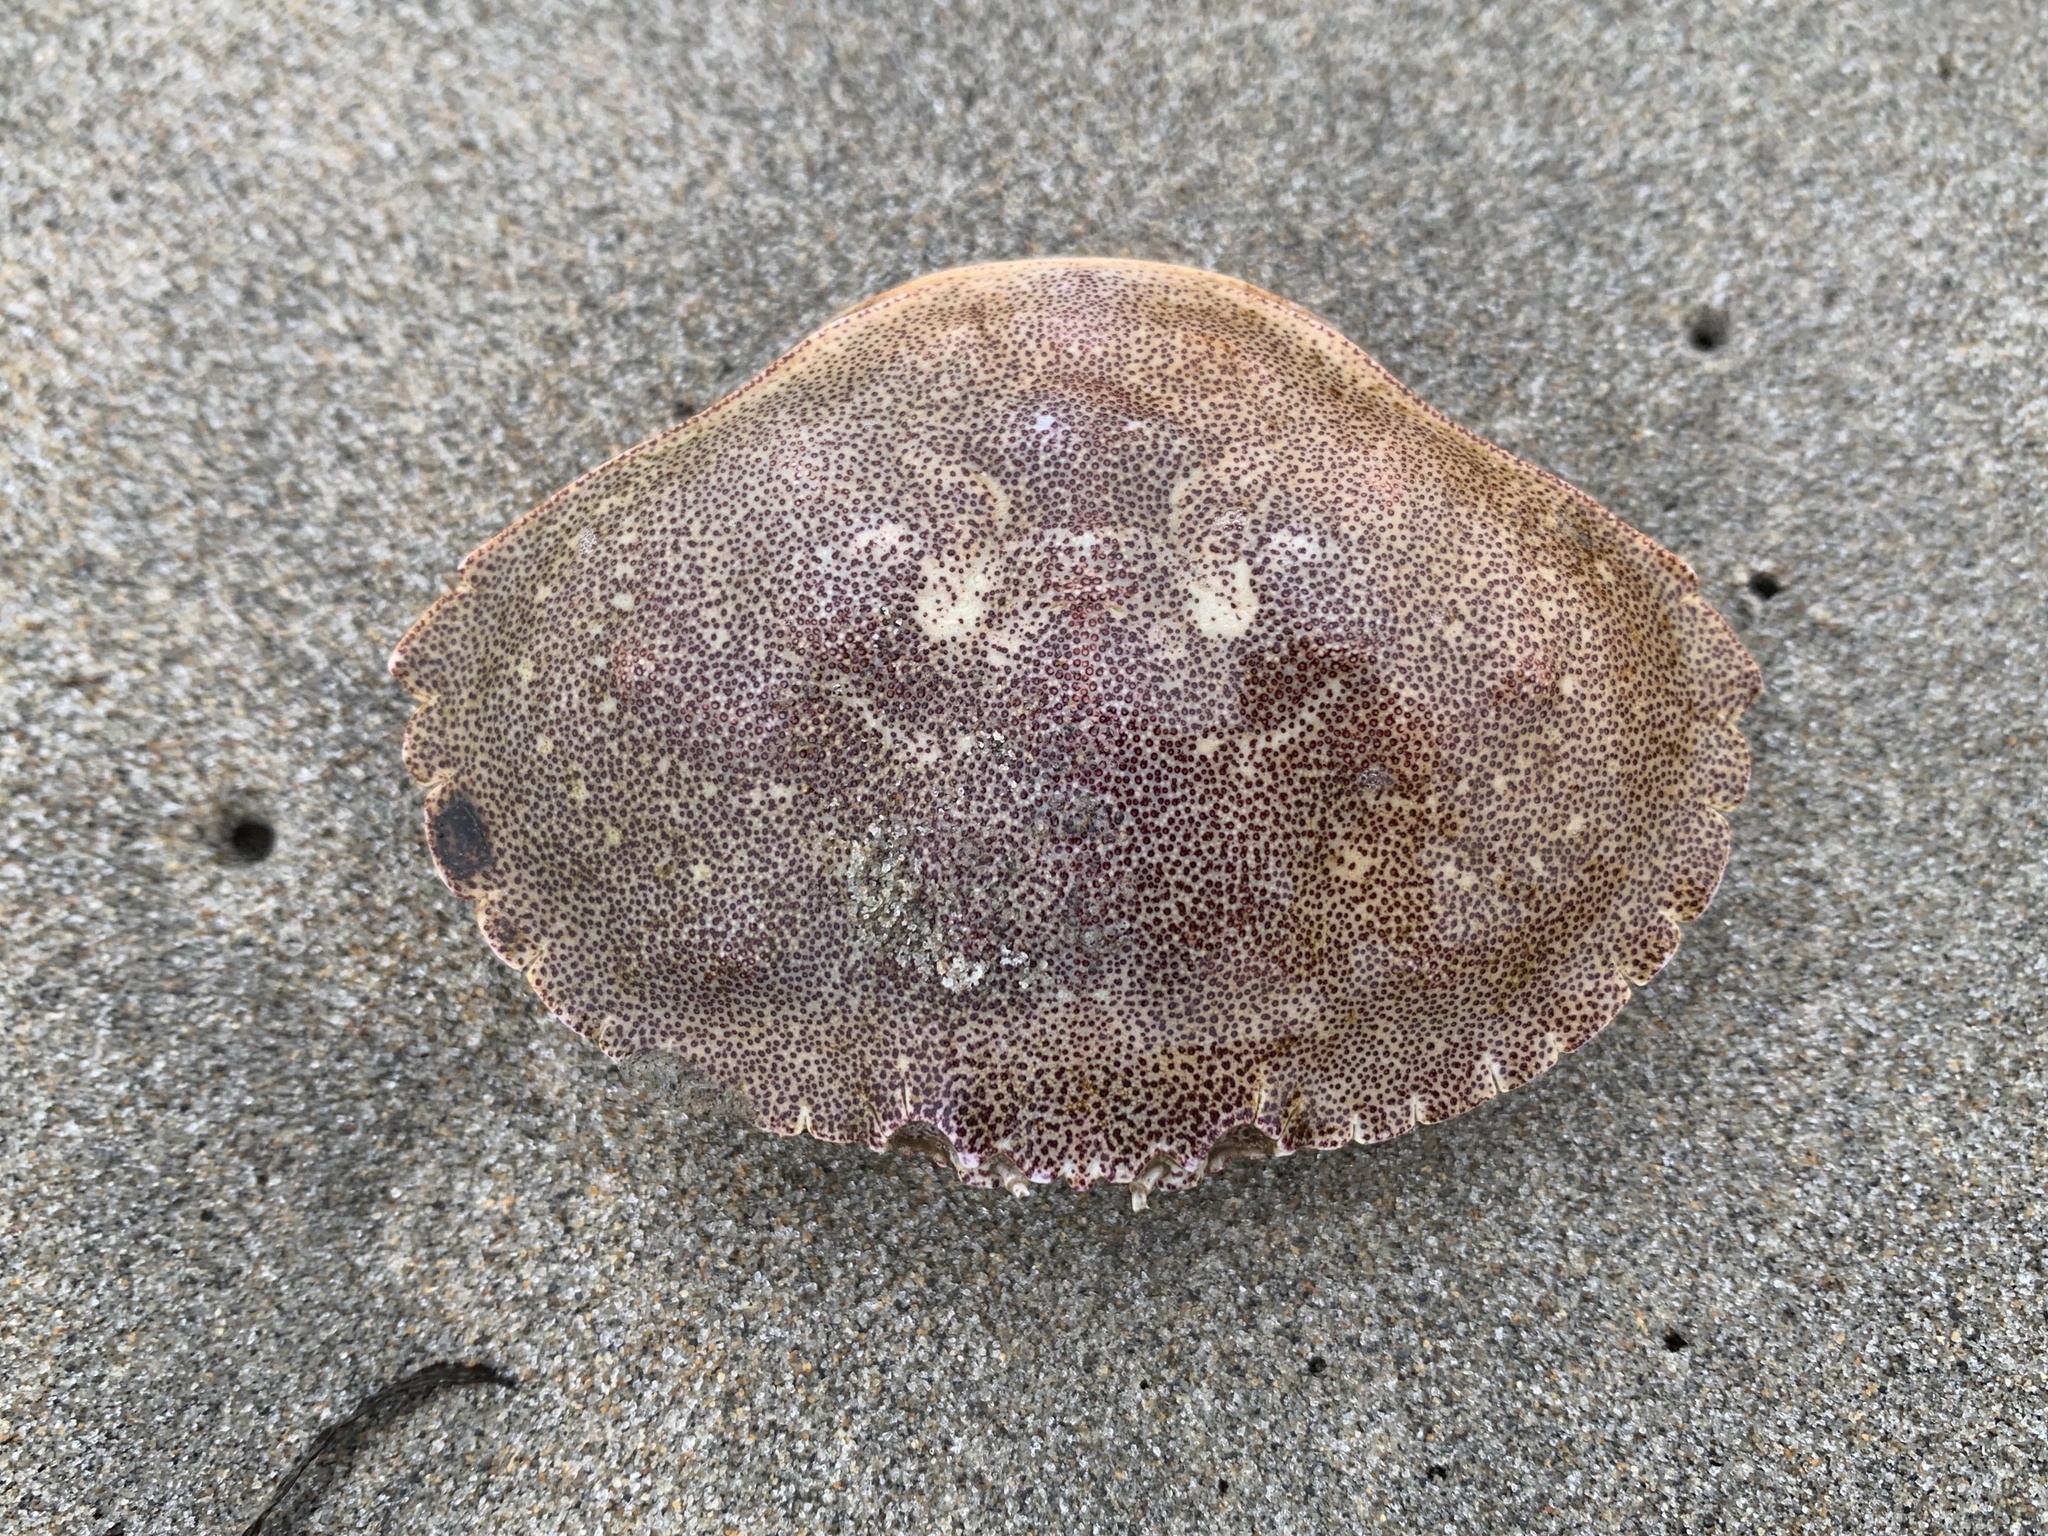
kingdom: Animalia
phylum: Arthropoda
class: Malacostraca
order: Decapoda
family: Cancridae
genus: Cancer
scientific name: Cancer irroratus
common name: Atlantic rock crab
